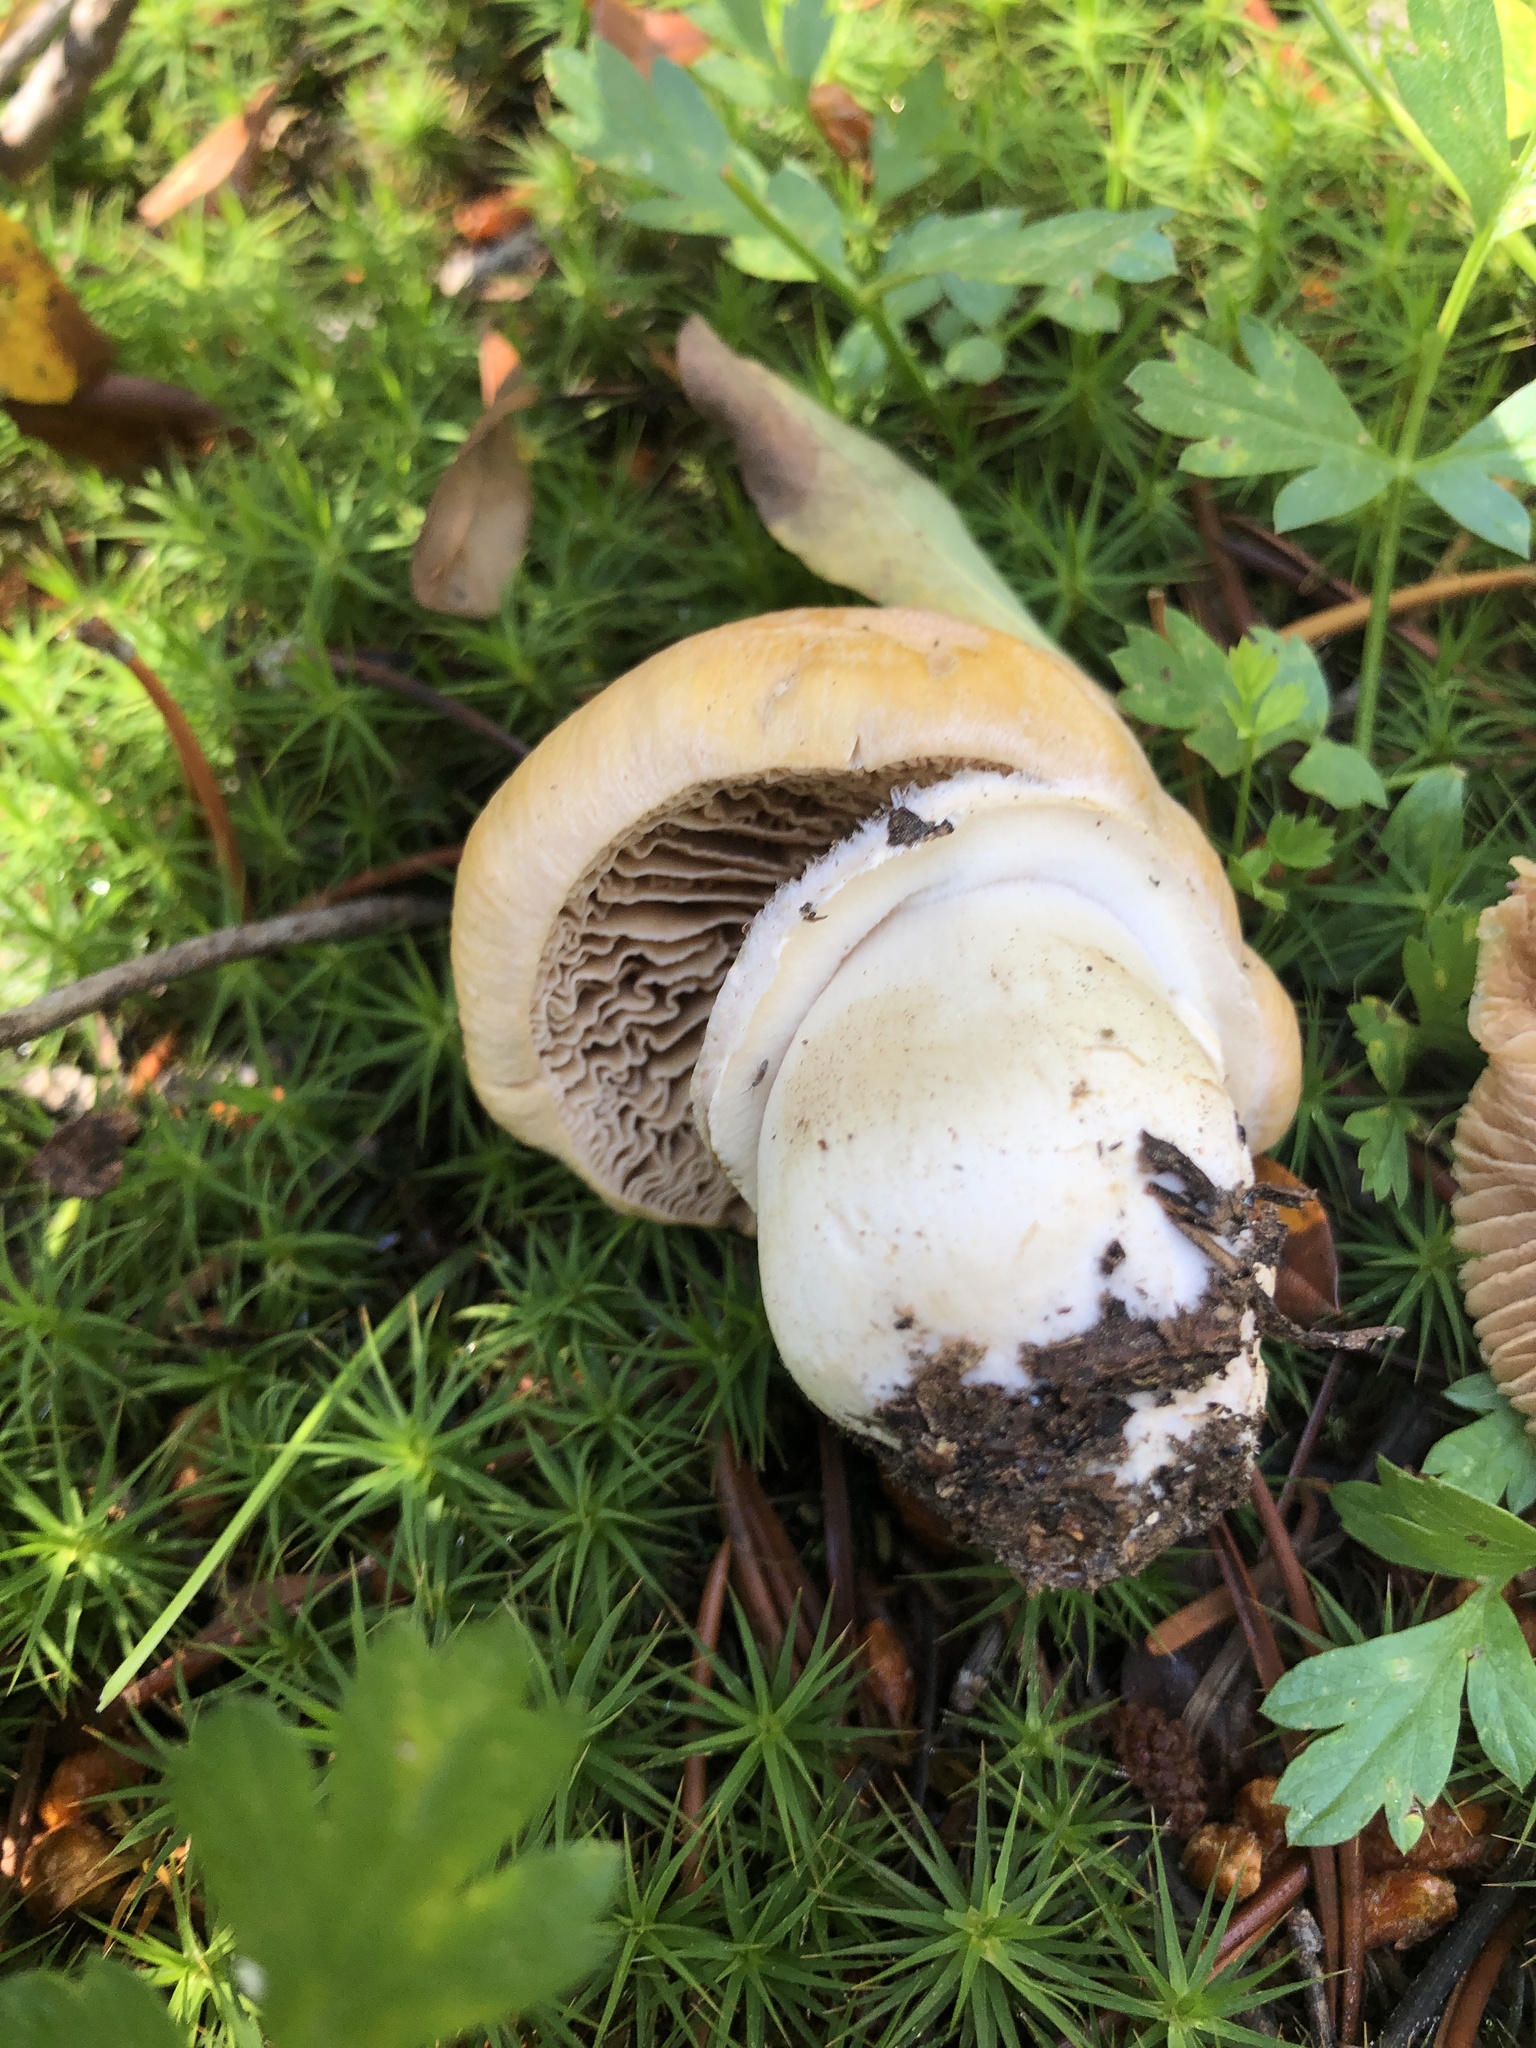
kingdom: Fungi
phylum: Basidiomycota
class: Agaricomycetes
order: Agaricales
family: Cortinariaceae
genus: Cortinarius
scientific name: Cortinarius caperatus
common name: The gypsy
